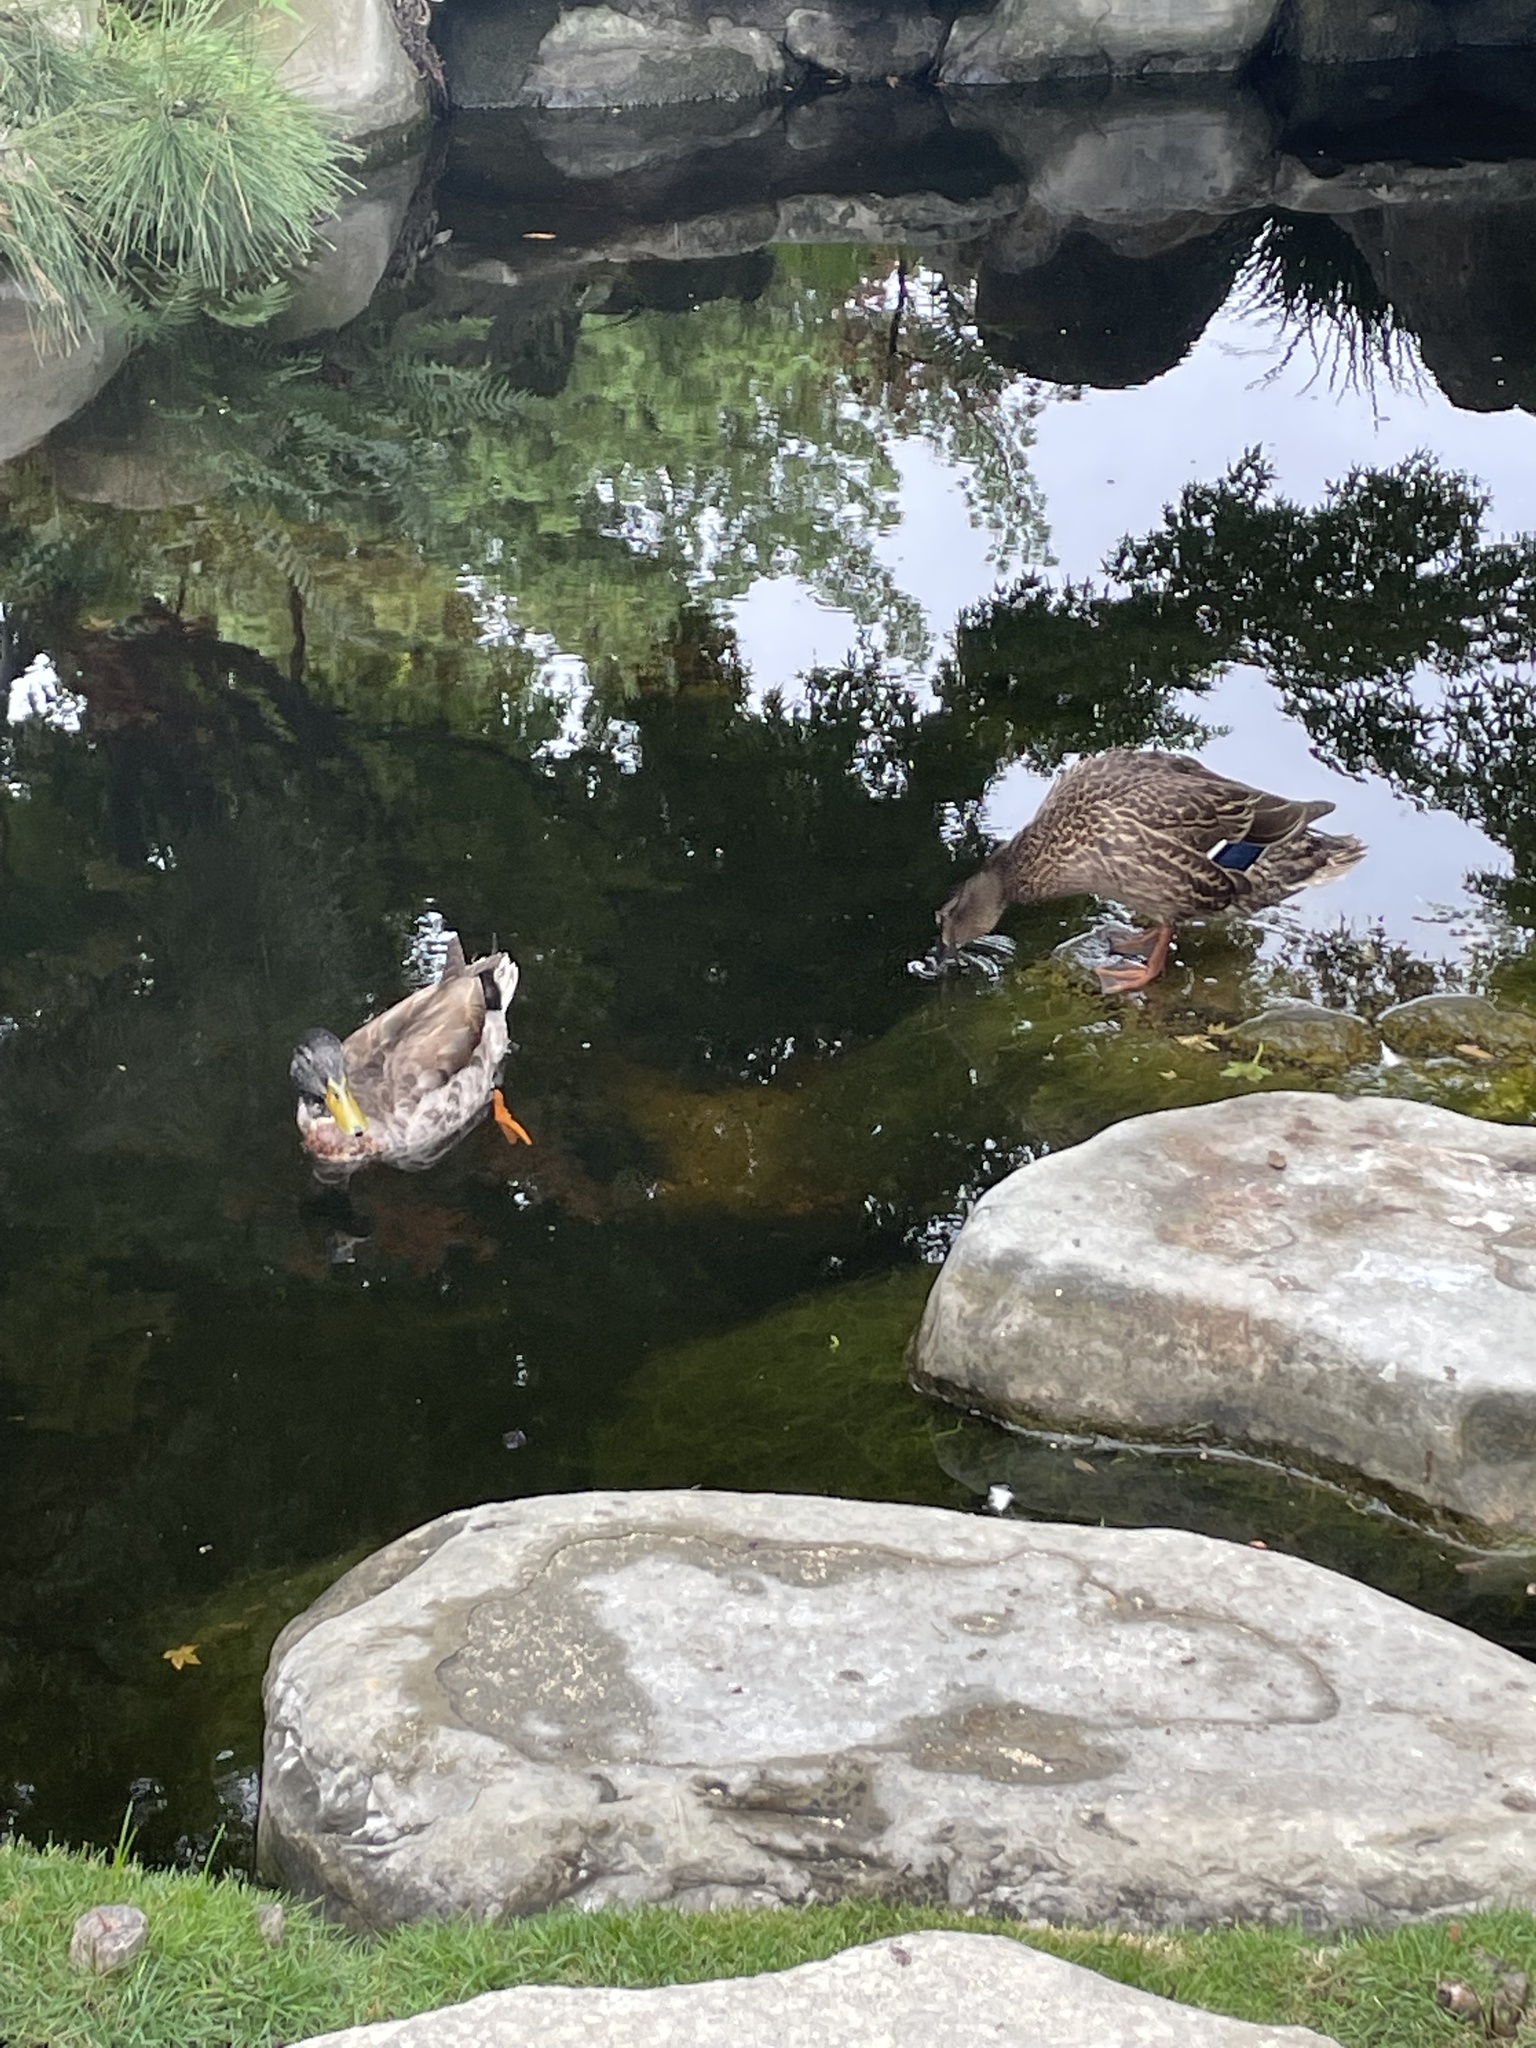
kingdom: Animalia
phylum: Chordata
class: Aves
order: Anseriformes
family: Anatidae
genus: Anas
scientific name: Anas platyrhynchos
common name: Mallard
